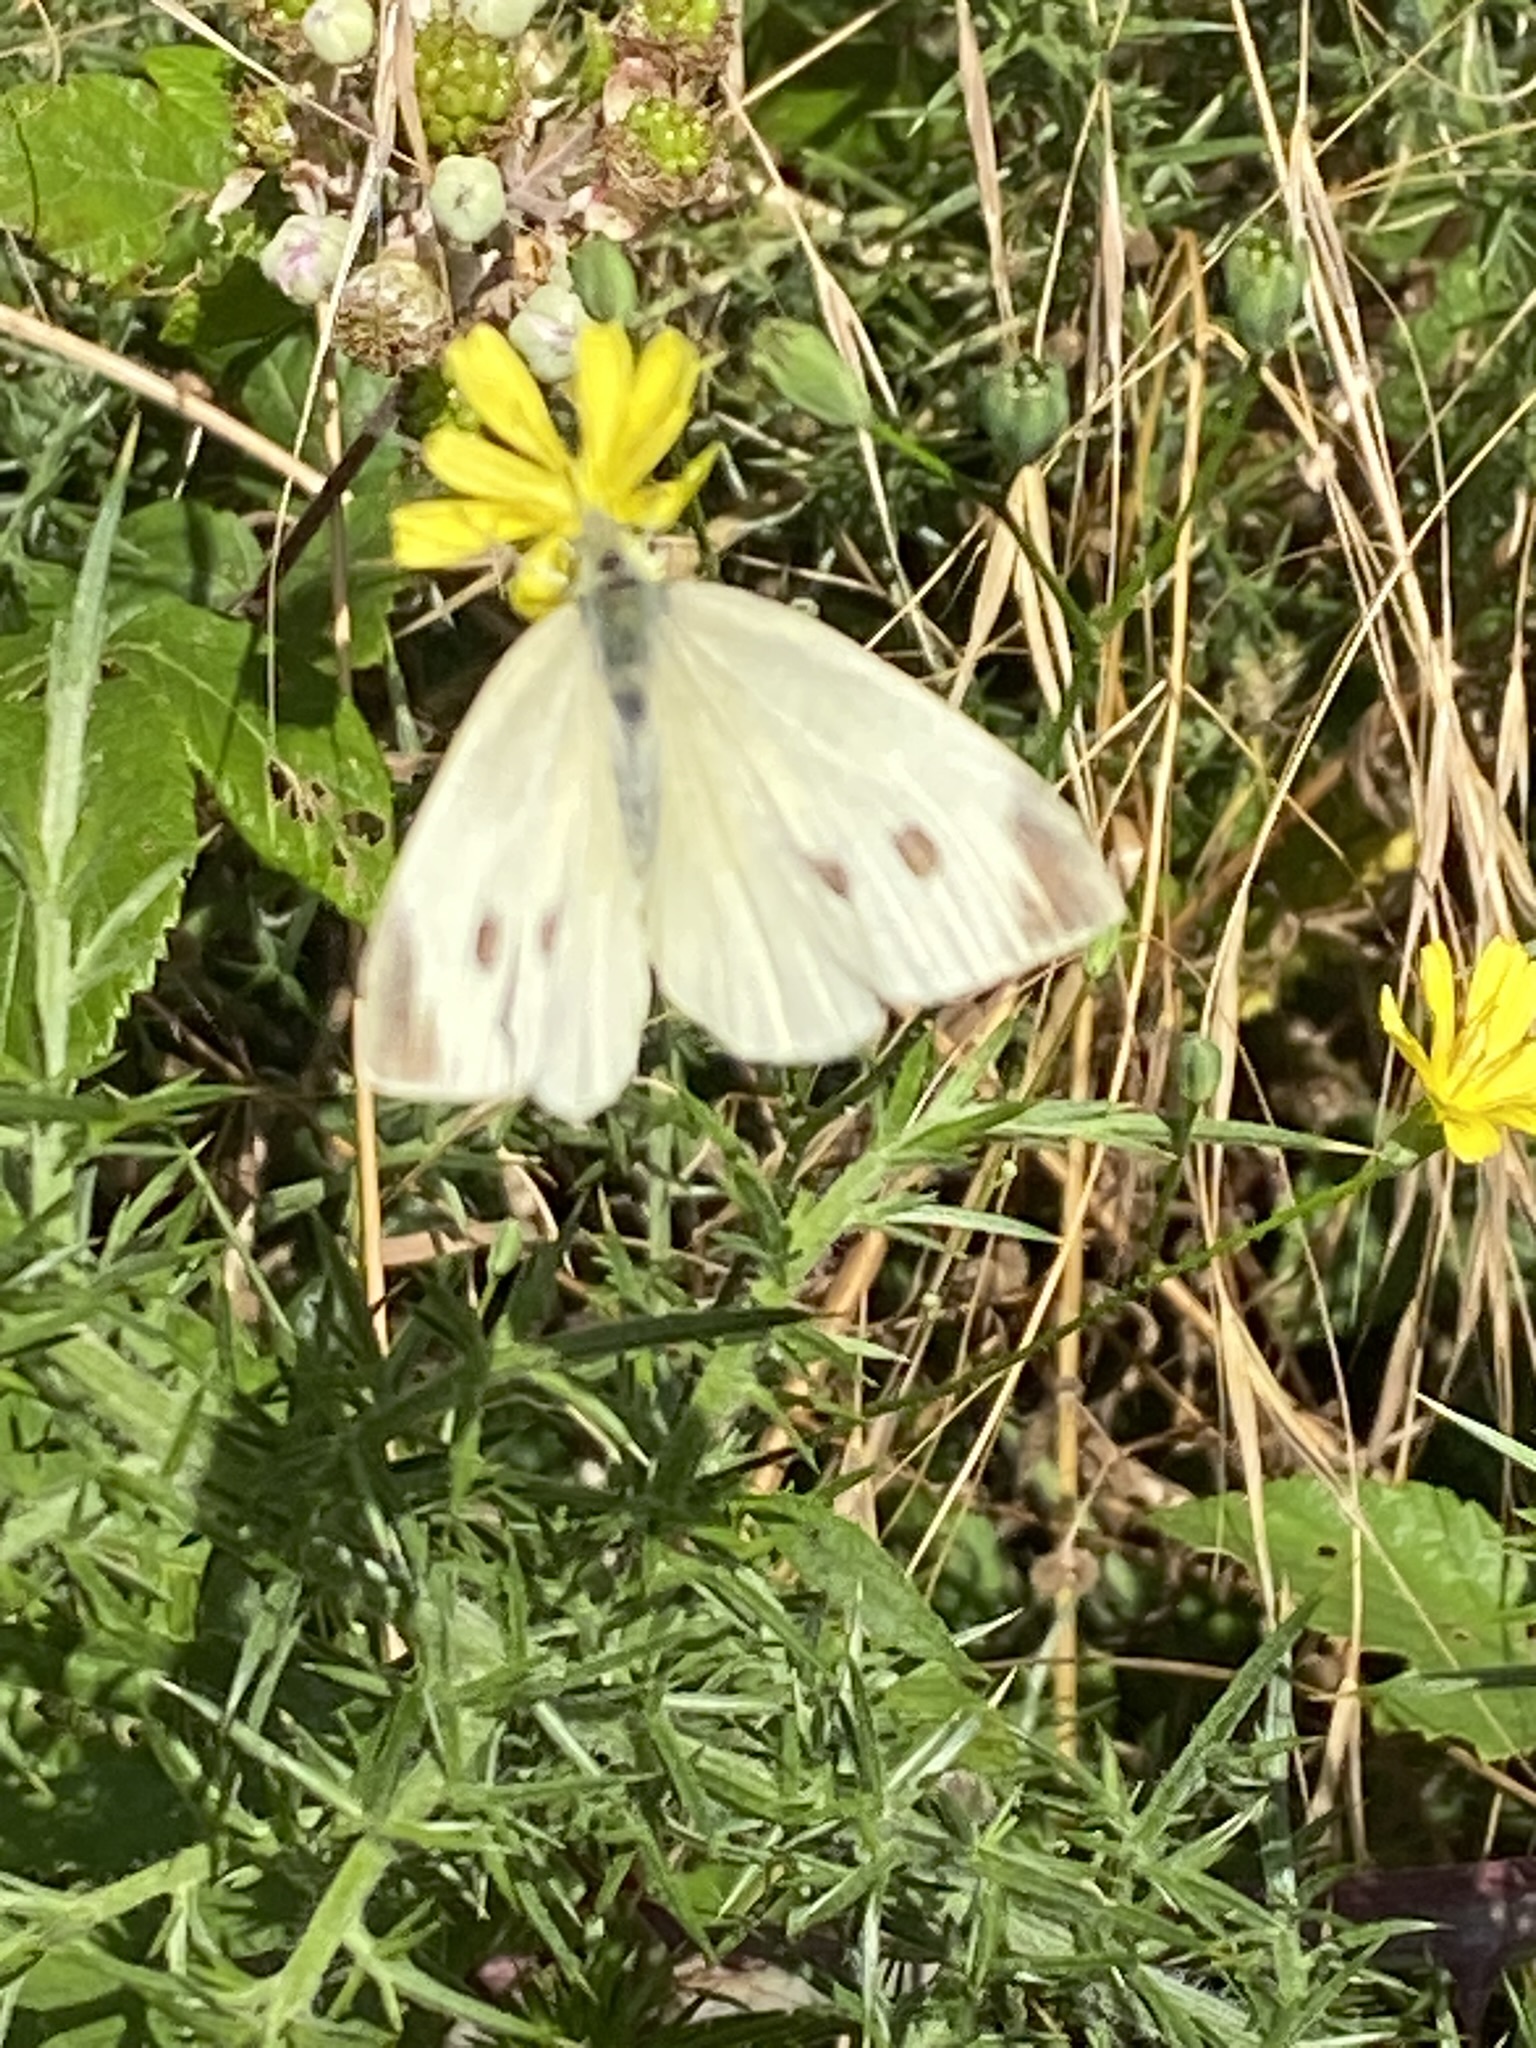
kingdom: Animalia
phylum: Arthropoda
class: Insecta
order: Lepidoptera
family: Pieridae
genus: Pieris
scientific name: Pieris rapae
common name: Small white
